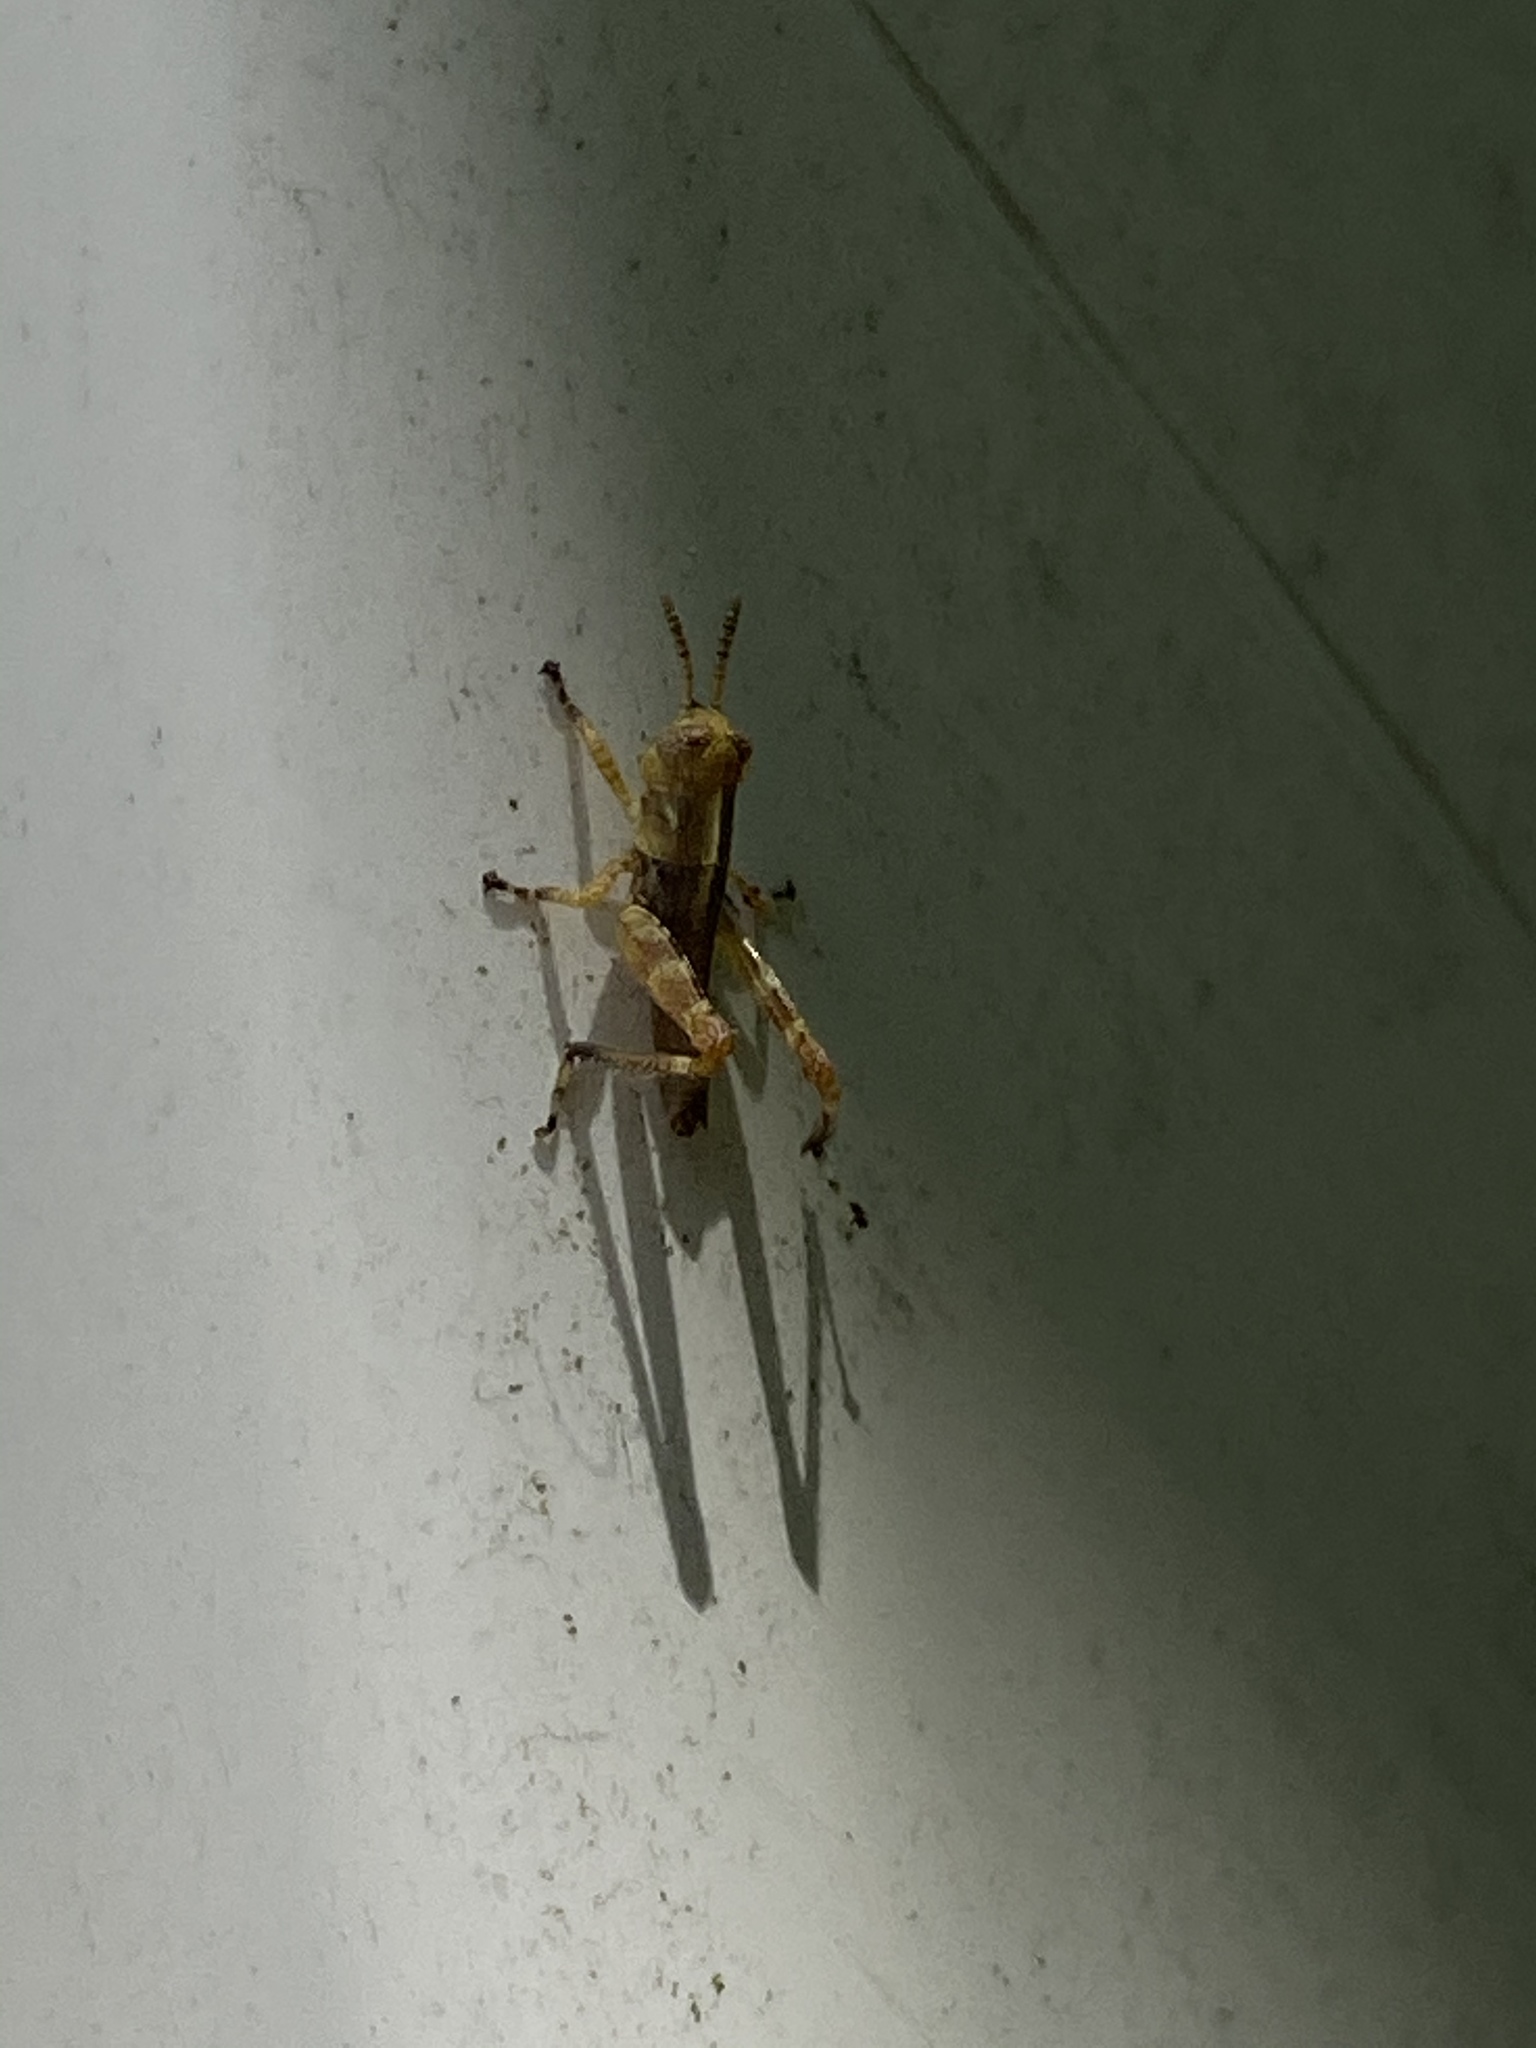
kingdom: Animalia
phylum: Arthropoda
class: Insecta
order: Orthoptera
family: Acrididae
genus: Melanoplus
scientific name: Melanoplus punctulatus
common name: Pine-tree spur-throat grasshopper
